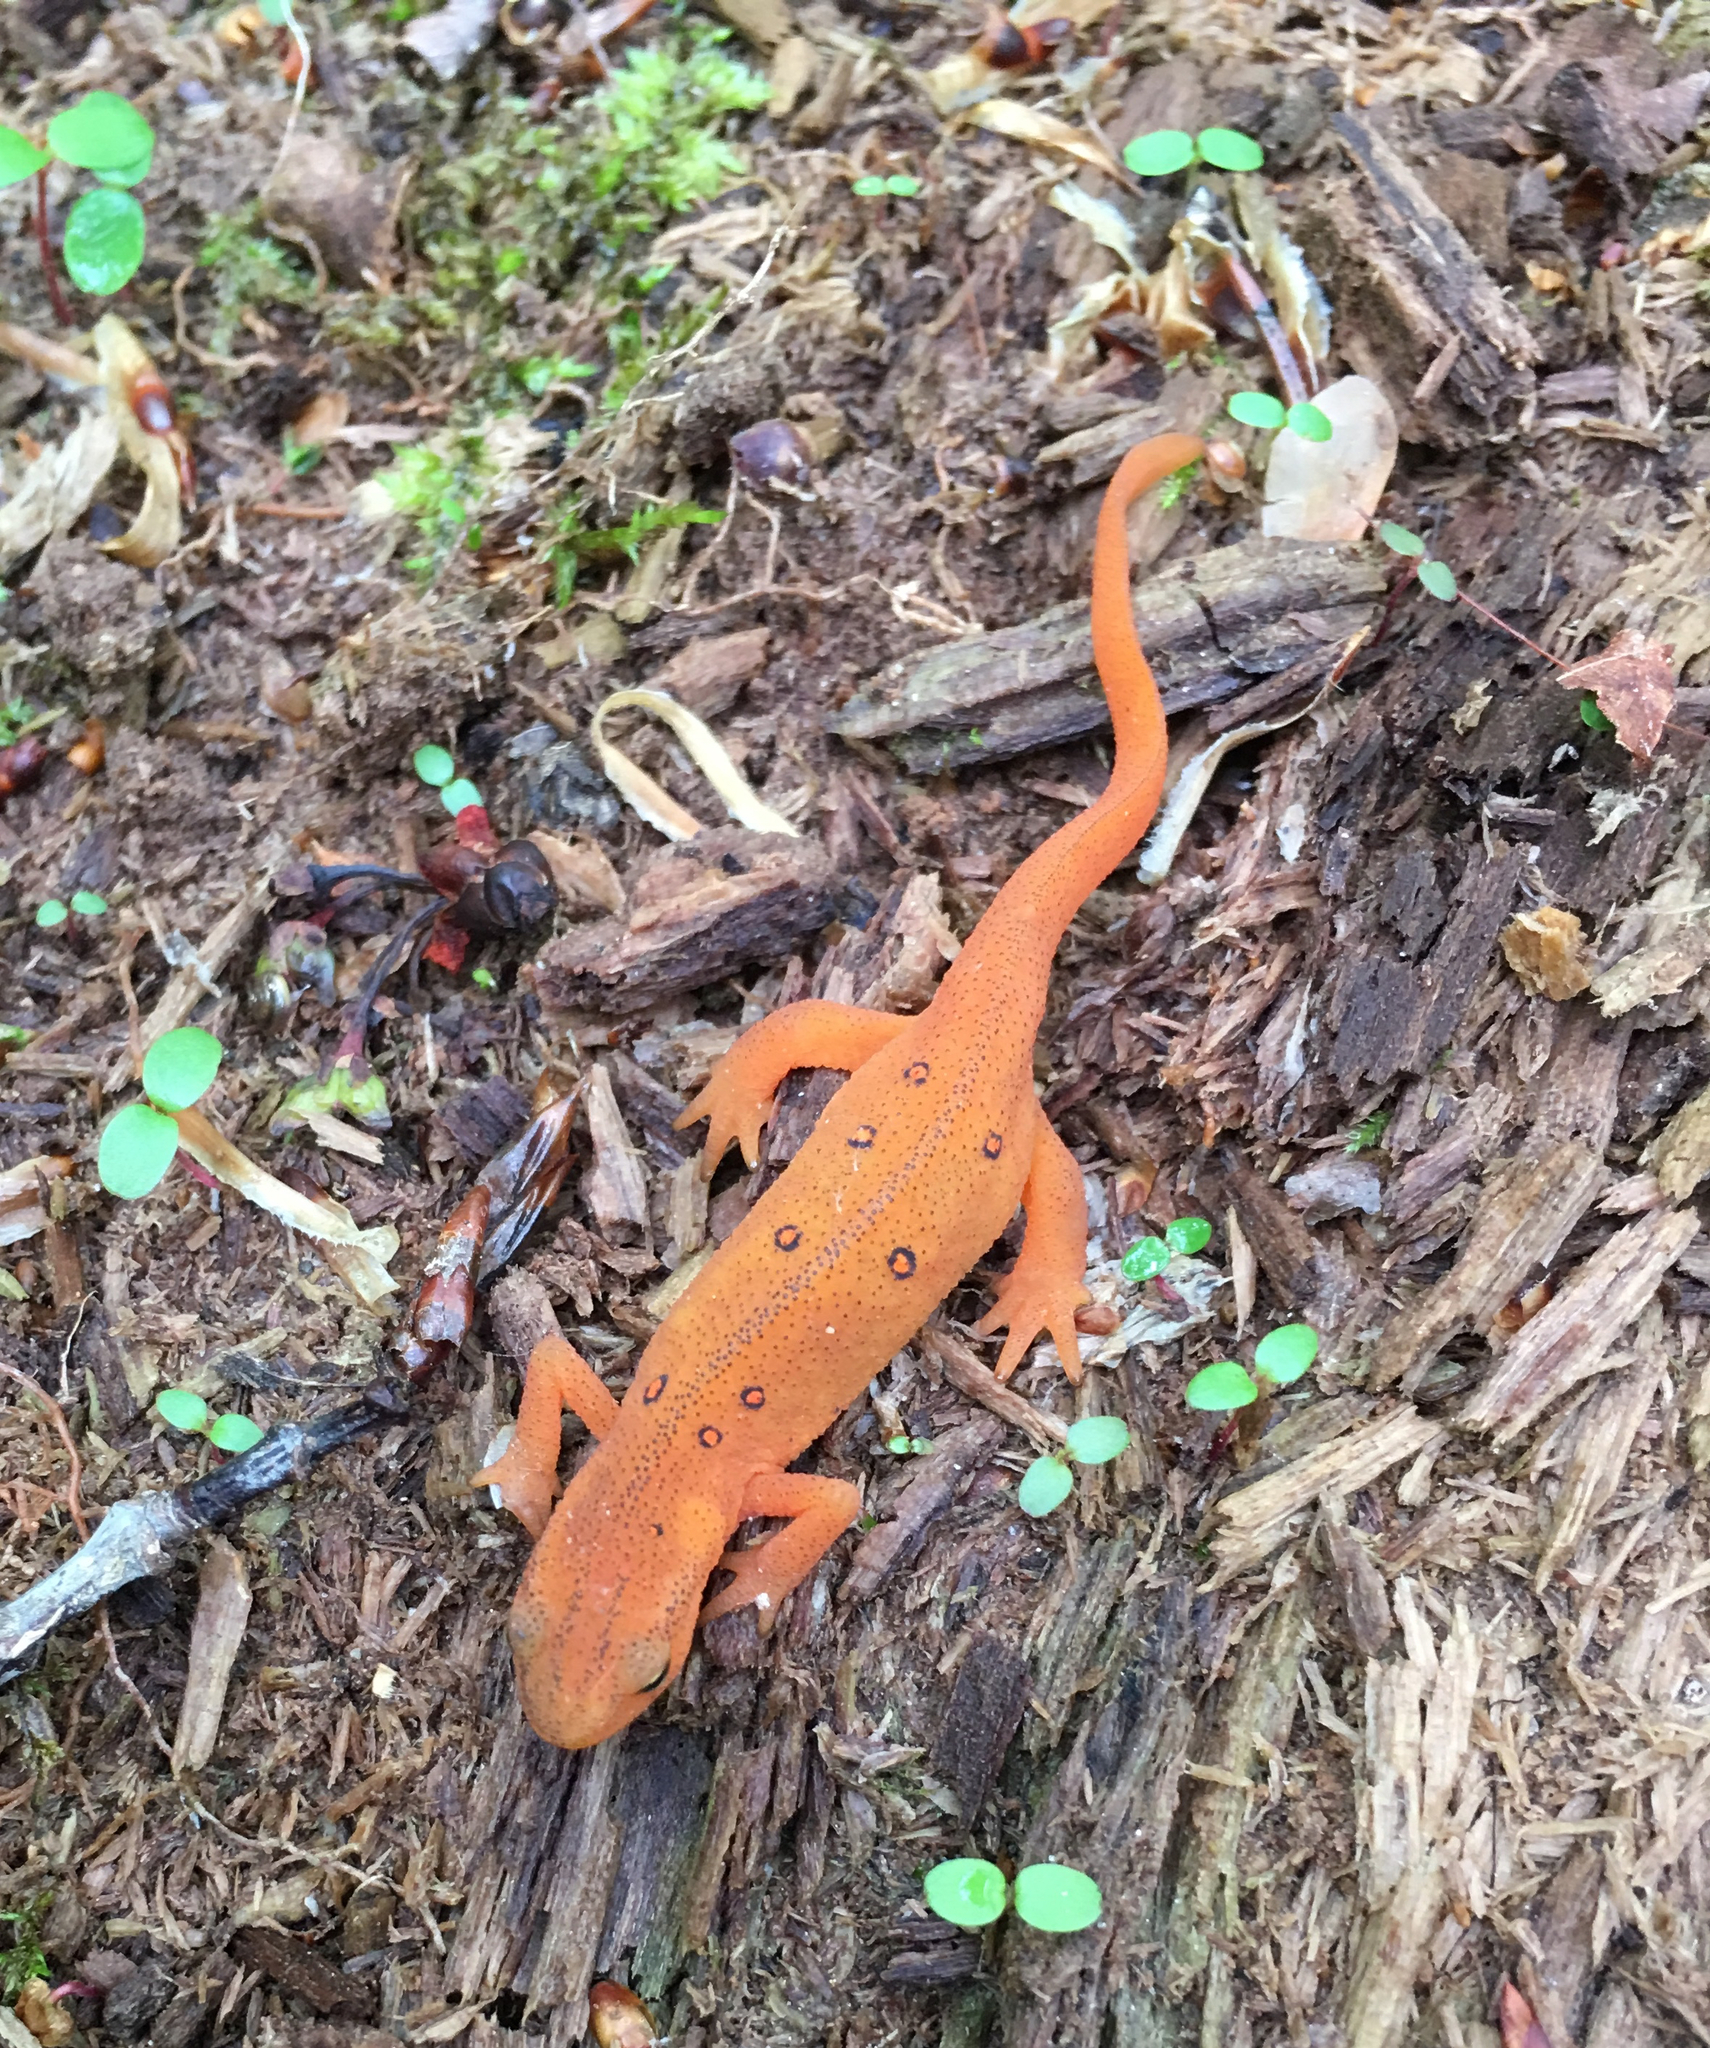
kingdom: Animalia
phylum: Chordata
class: Amphibia
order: Caudata
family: Salamandridae
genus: Notophthalmus
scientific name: Notophthalmus viridescens
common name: Eastern newt
